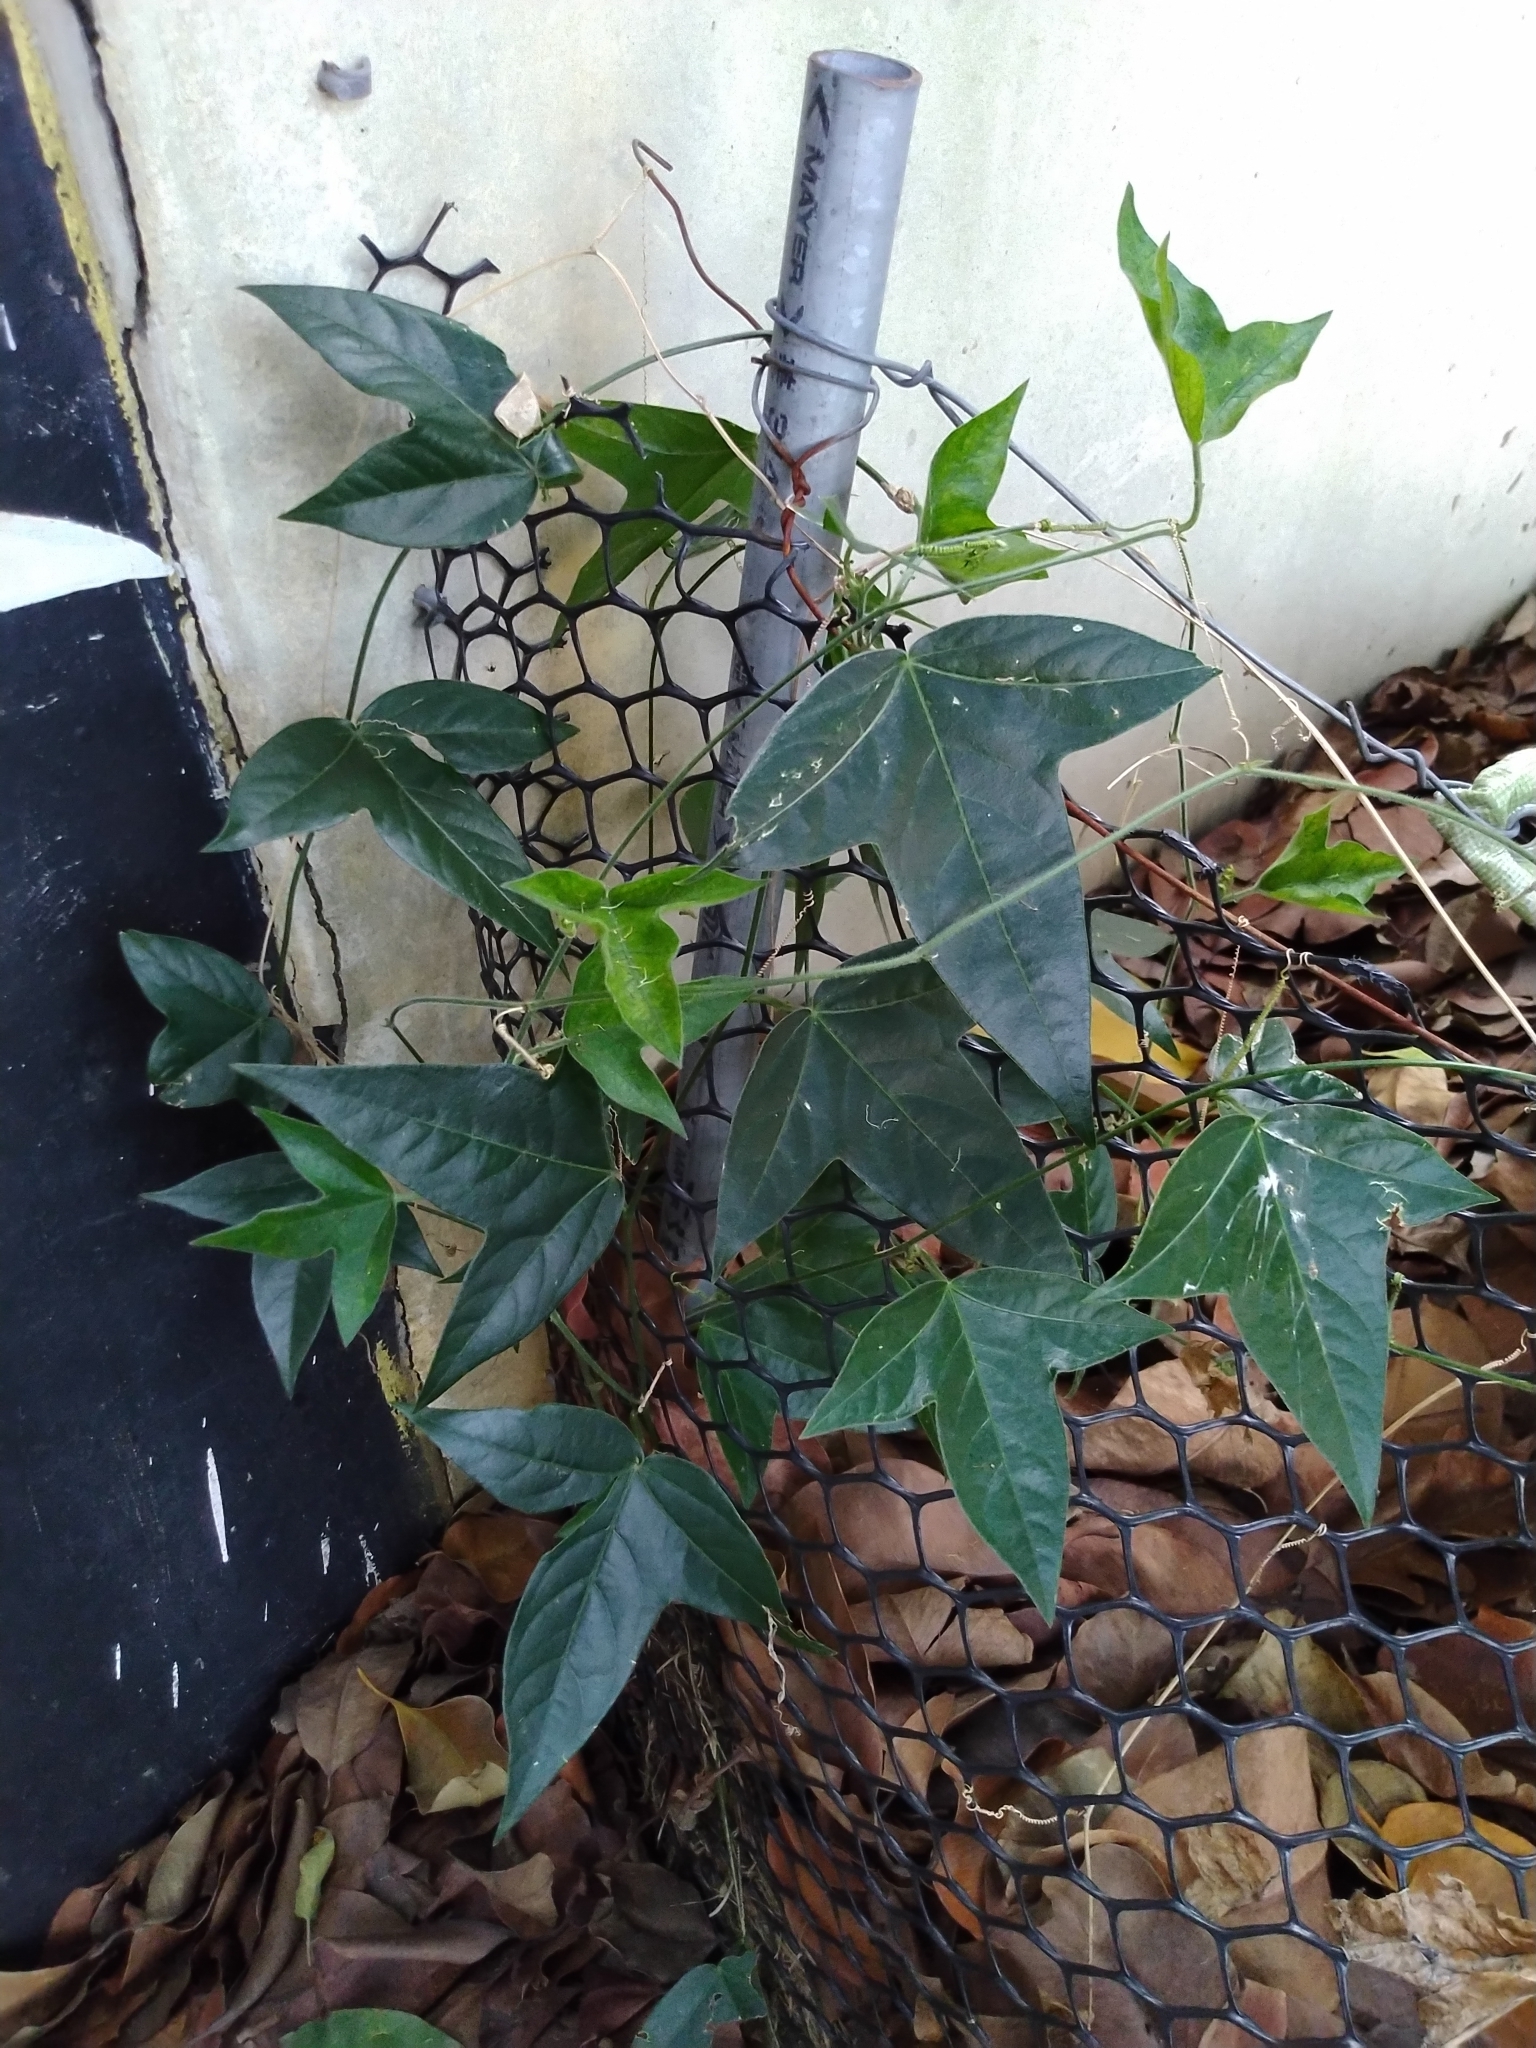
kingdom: Plantae
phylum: Tracheophyta
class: Magnoliopsida
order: Malpighiales
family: Passifloraceae
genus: Passiflora
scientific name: Passiflora suberosa
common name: Wild passionfruit
